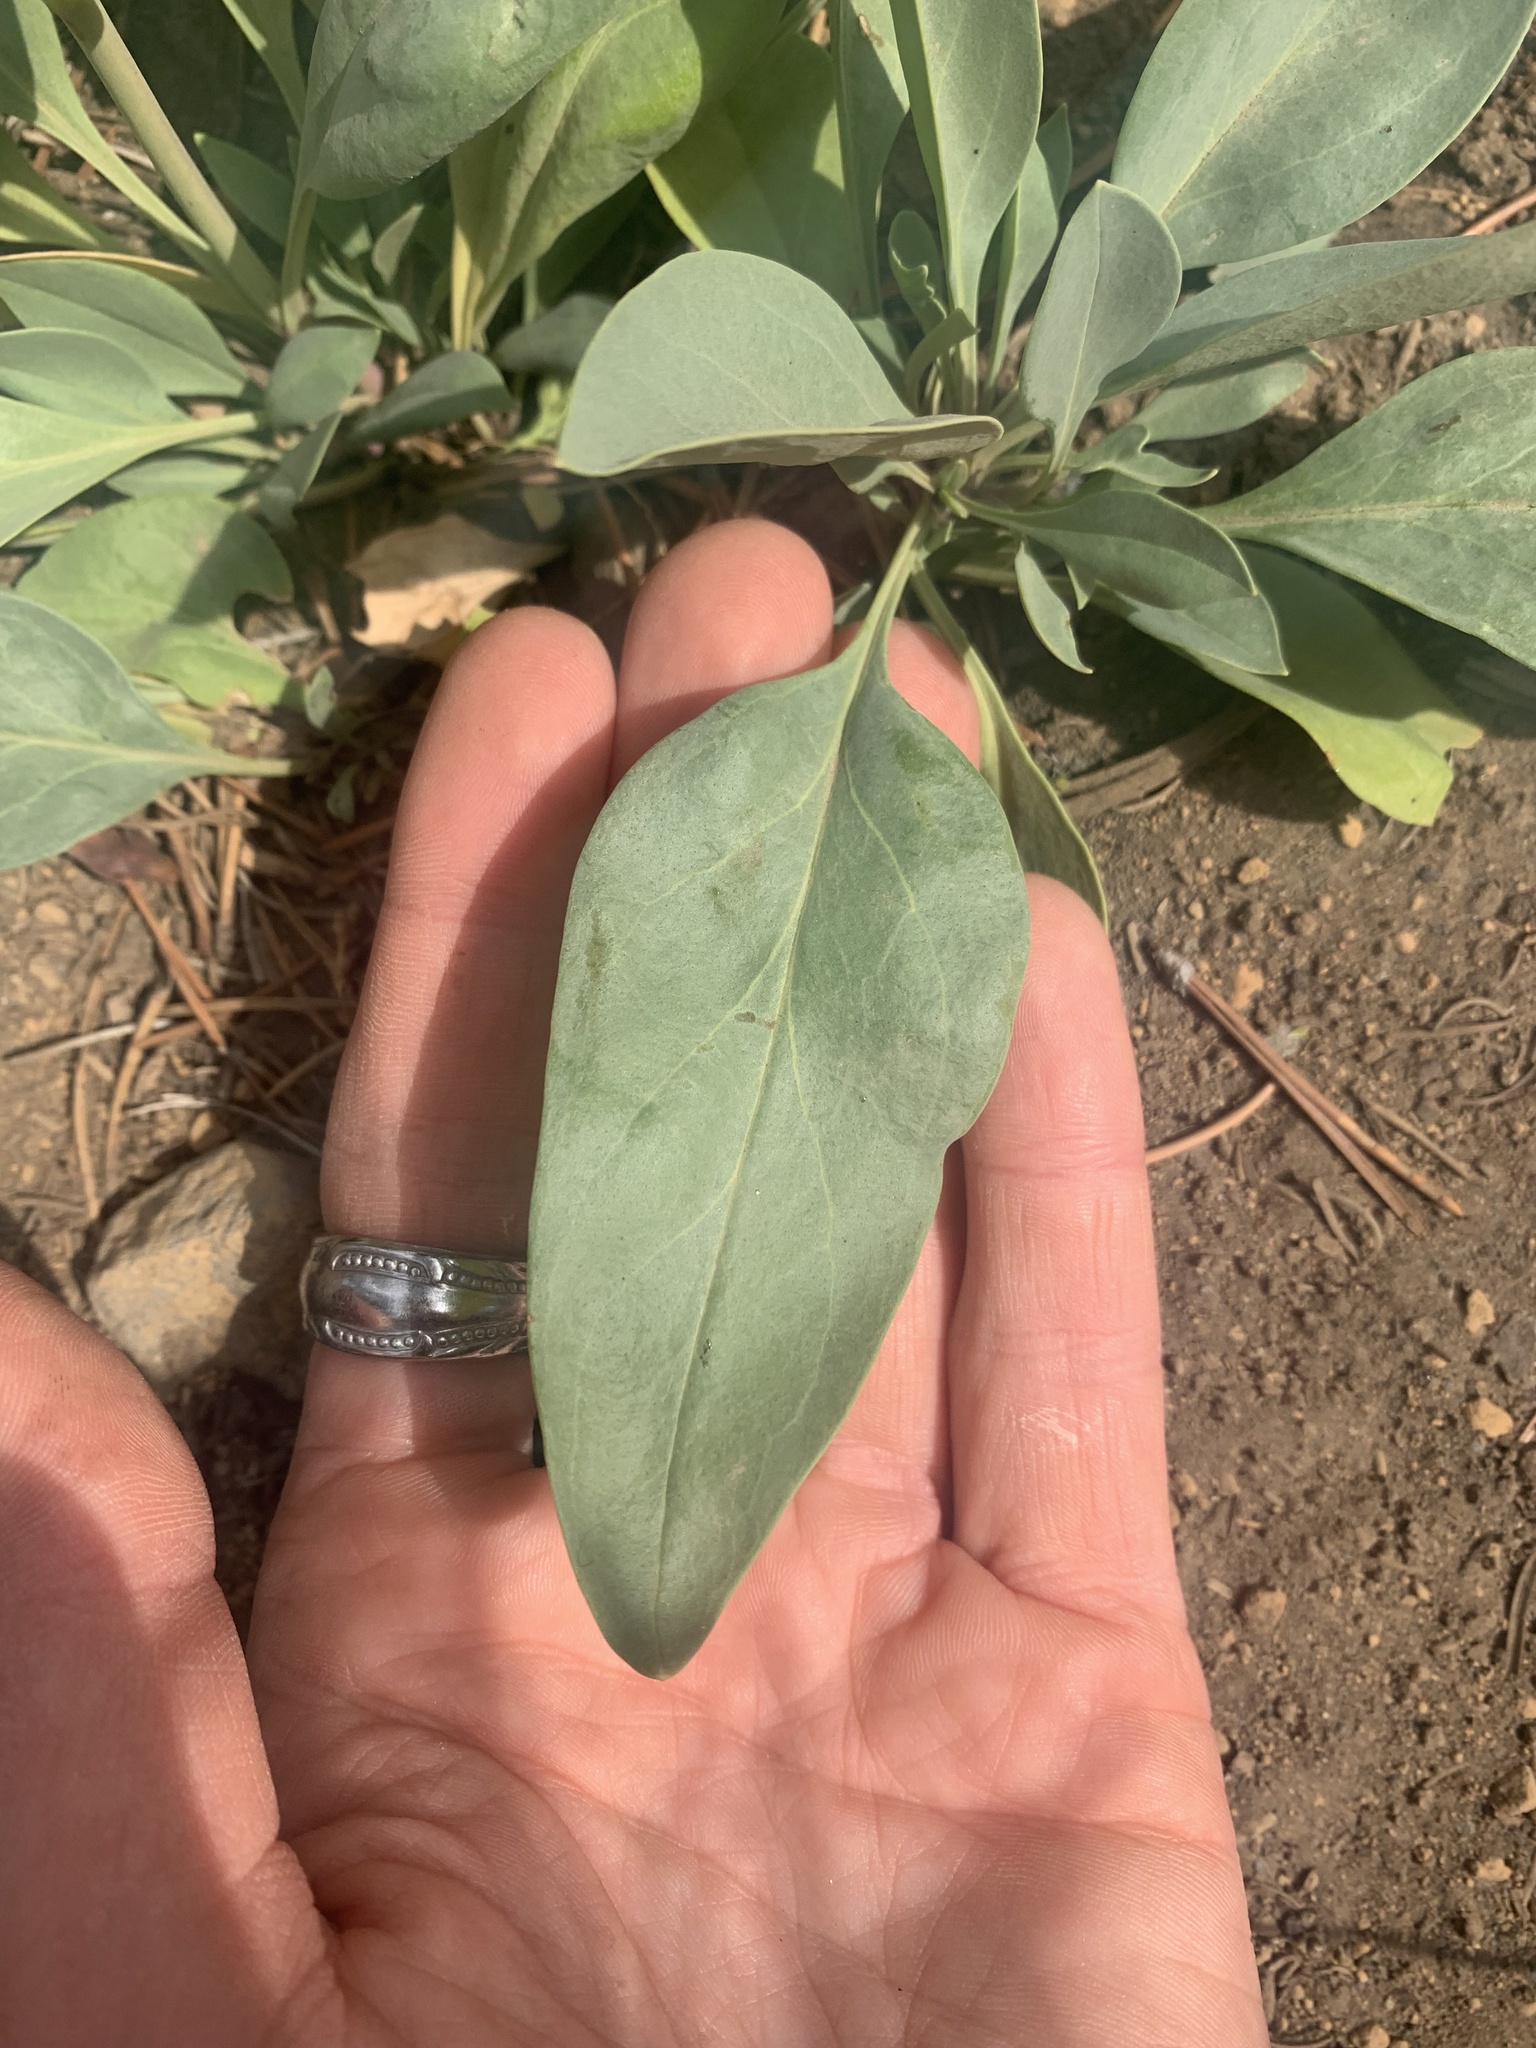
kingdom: Plantae
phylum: Tracheophyta
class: Magnoliopsida
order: Lamiales
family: Plantaginaceae
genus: Penstemon
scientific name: Penstemon euglaucus
